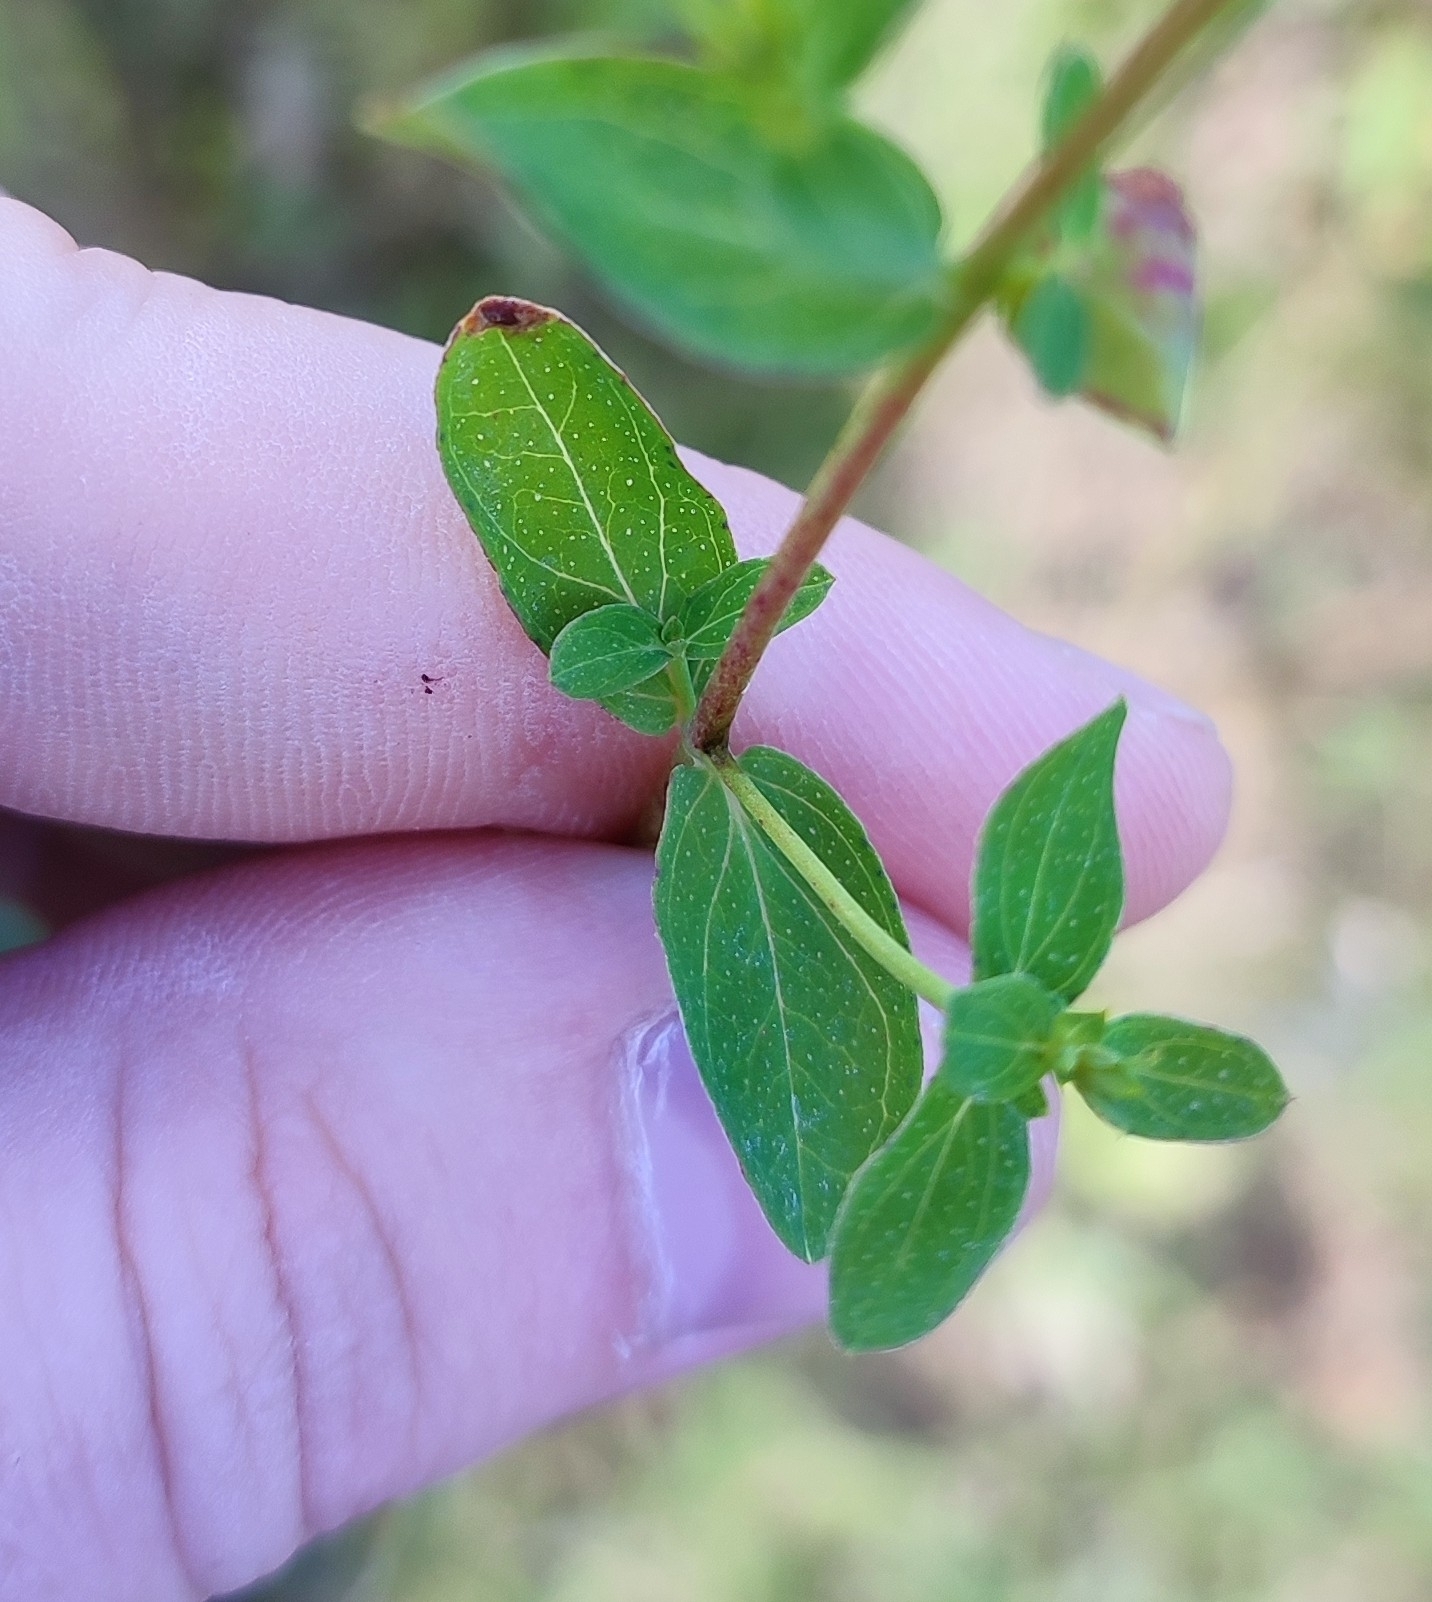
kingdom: Plantae
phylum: Tracheophyta
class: Magnoliopsida
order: Malpighiales
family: Hypericaceae
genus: Hypericum
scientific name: Hypericum perforatum
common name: Common st. johnswort
